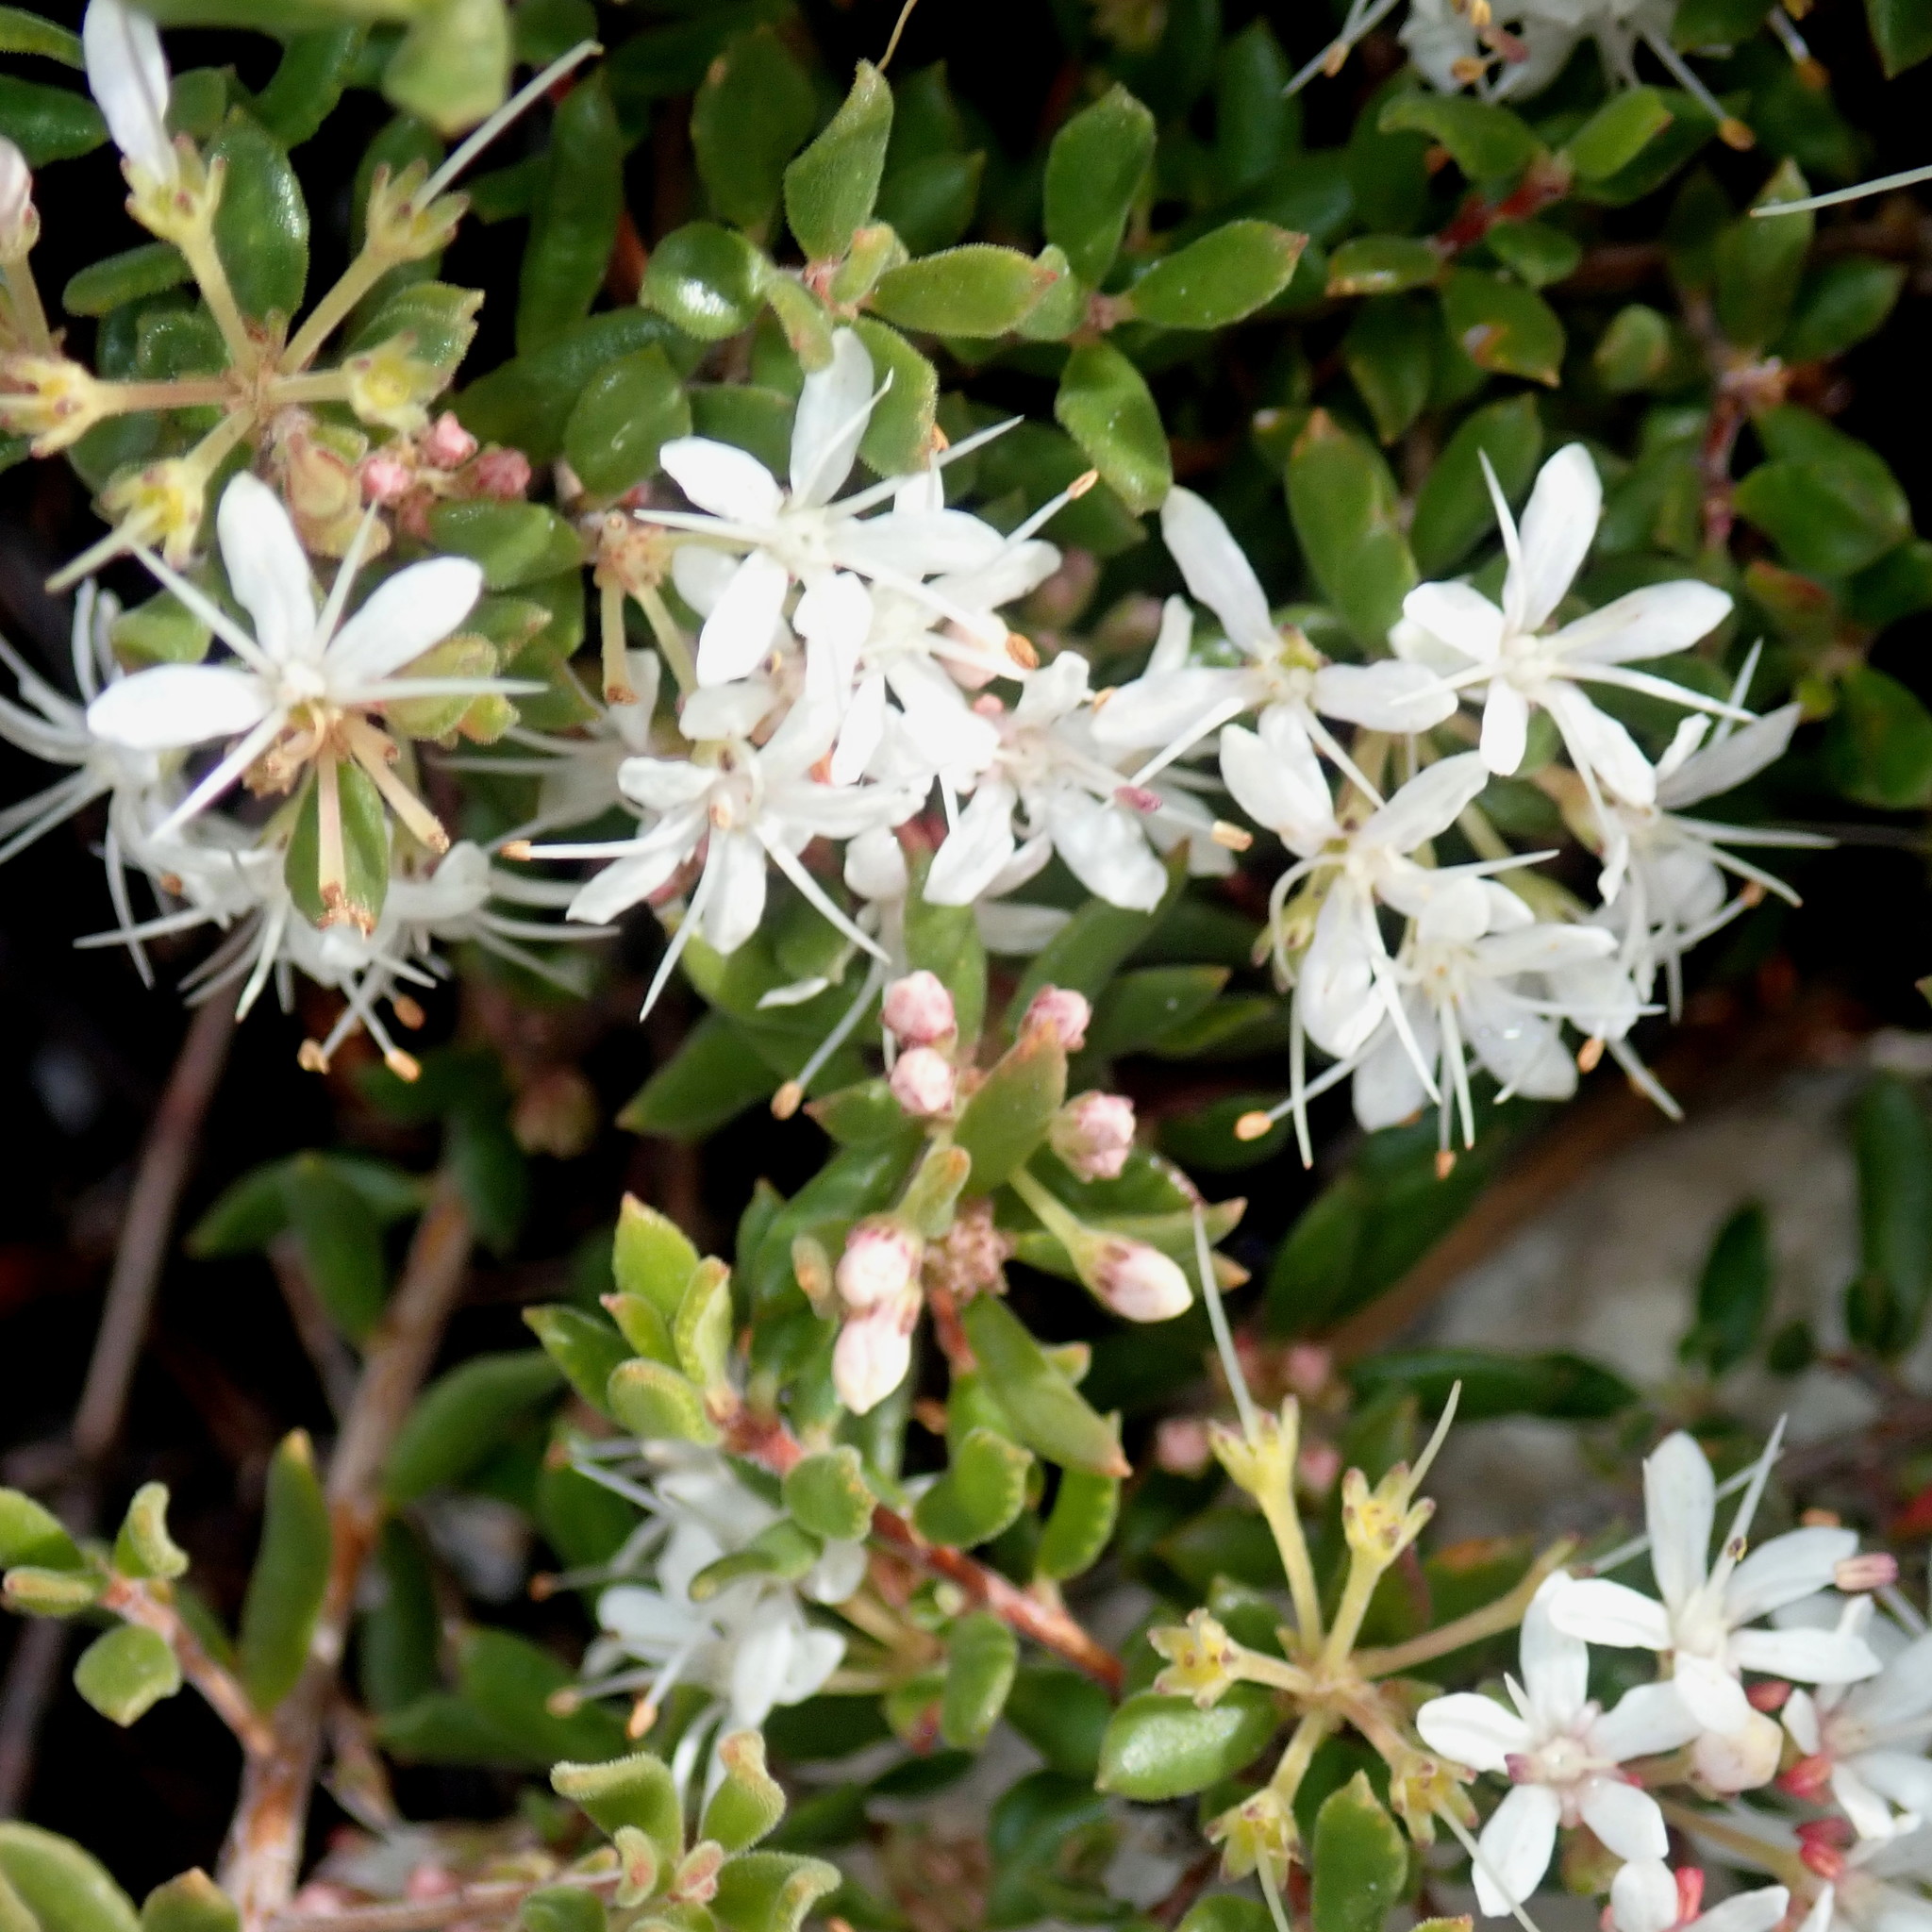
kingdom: Plantae
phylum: Tracheophyta
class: Magnoliopsida
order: Sapindales
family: Rutaceae
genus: Agathosma
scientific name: Agathosma mundtii
